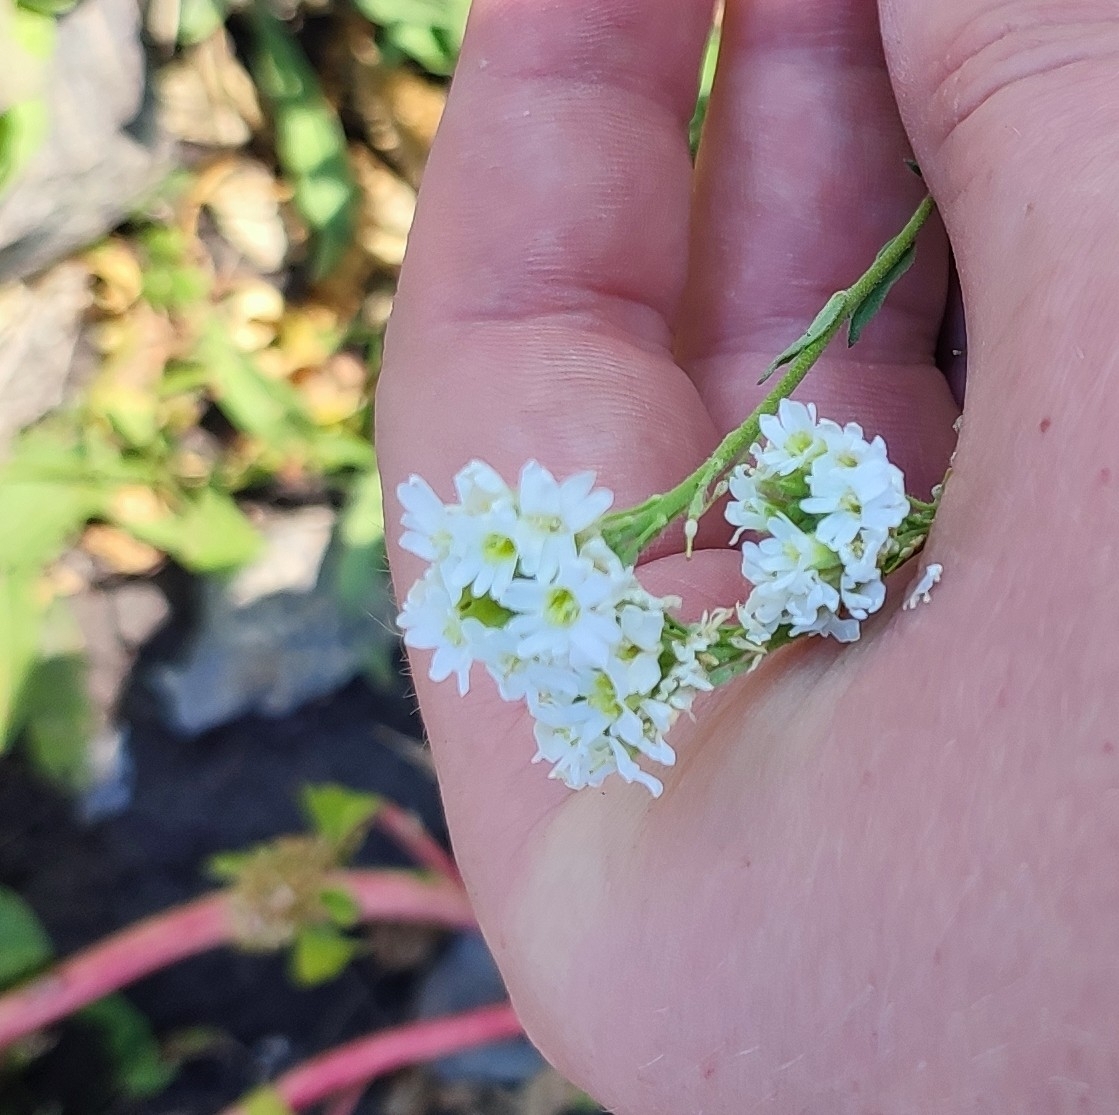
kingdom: Plantae
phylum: Tracheophyta
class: Magnoliopsida
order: Brassicales
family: Brassicaceae
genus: Berteroa
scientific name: Berteroa incana
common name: Hoary alison
